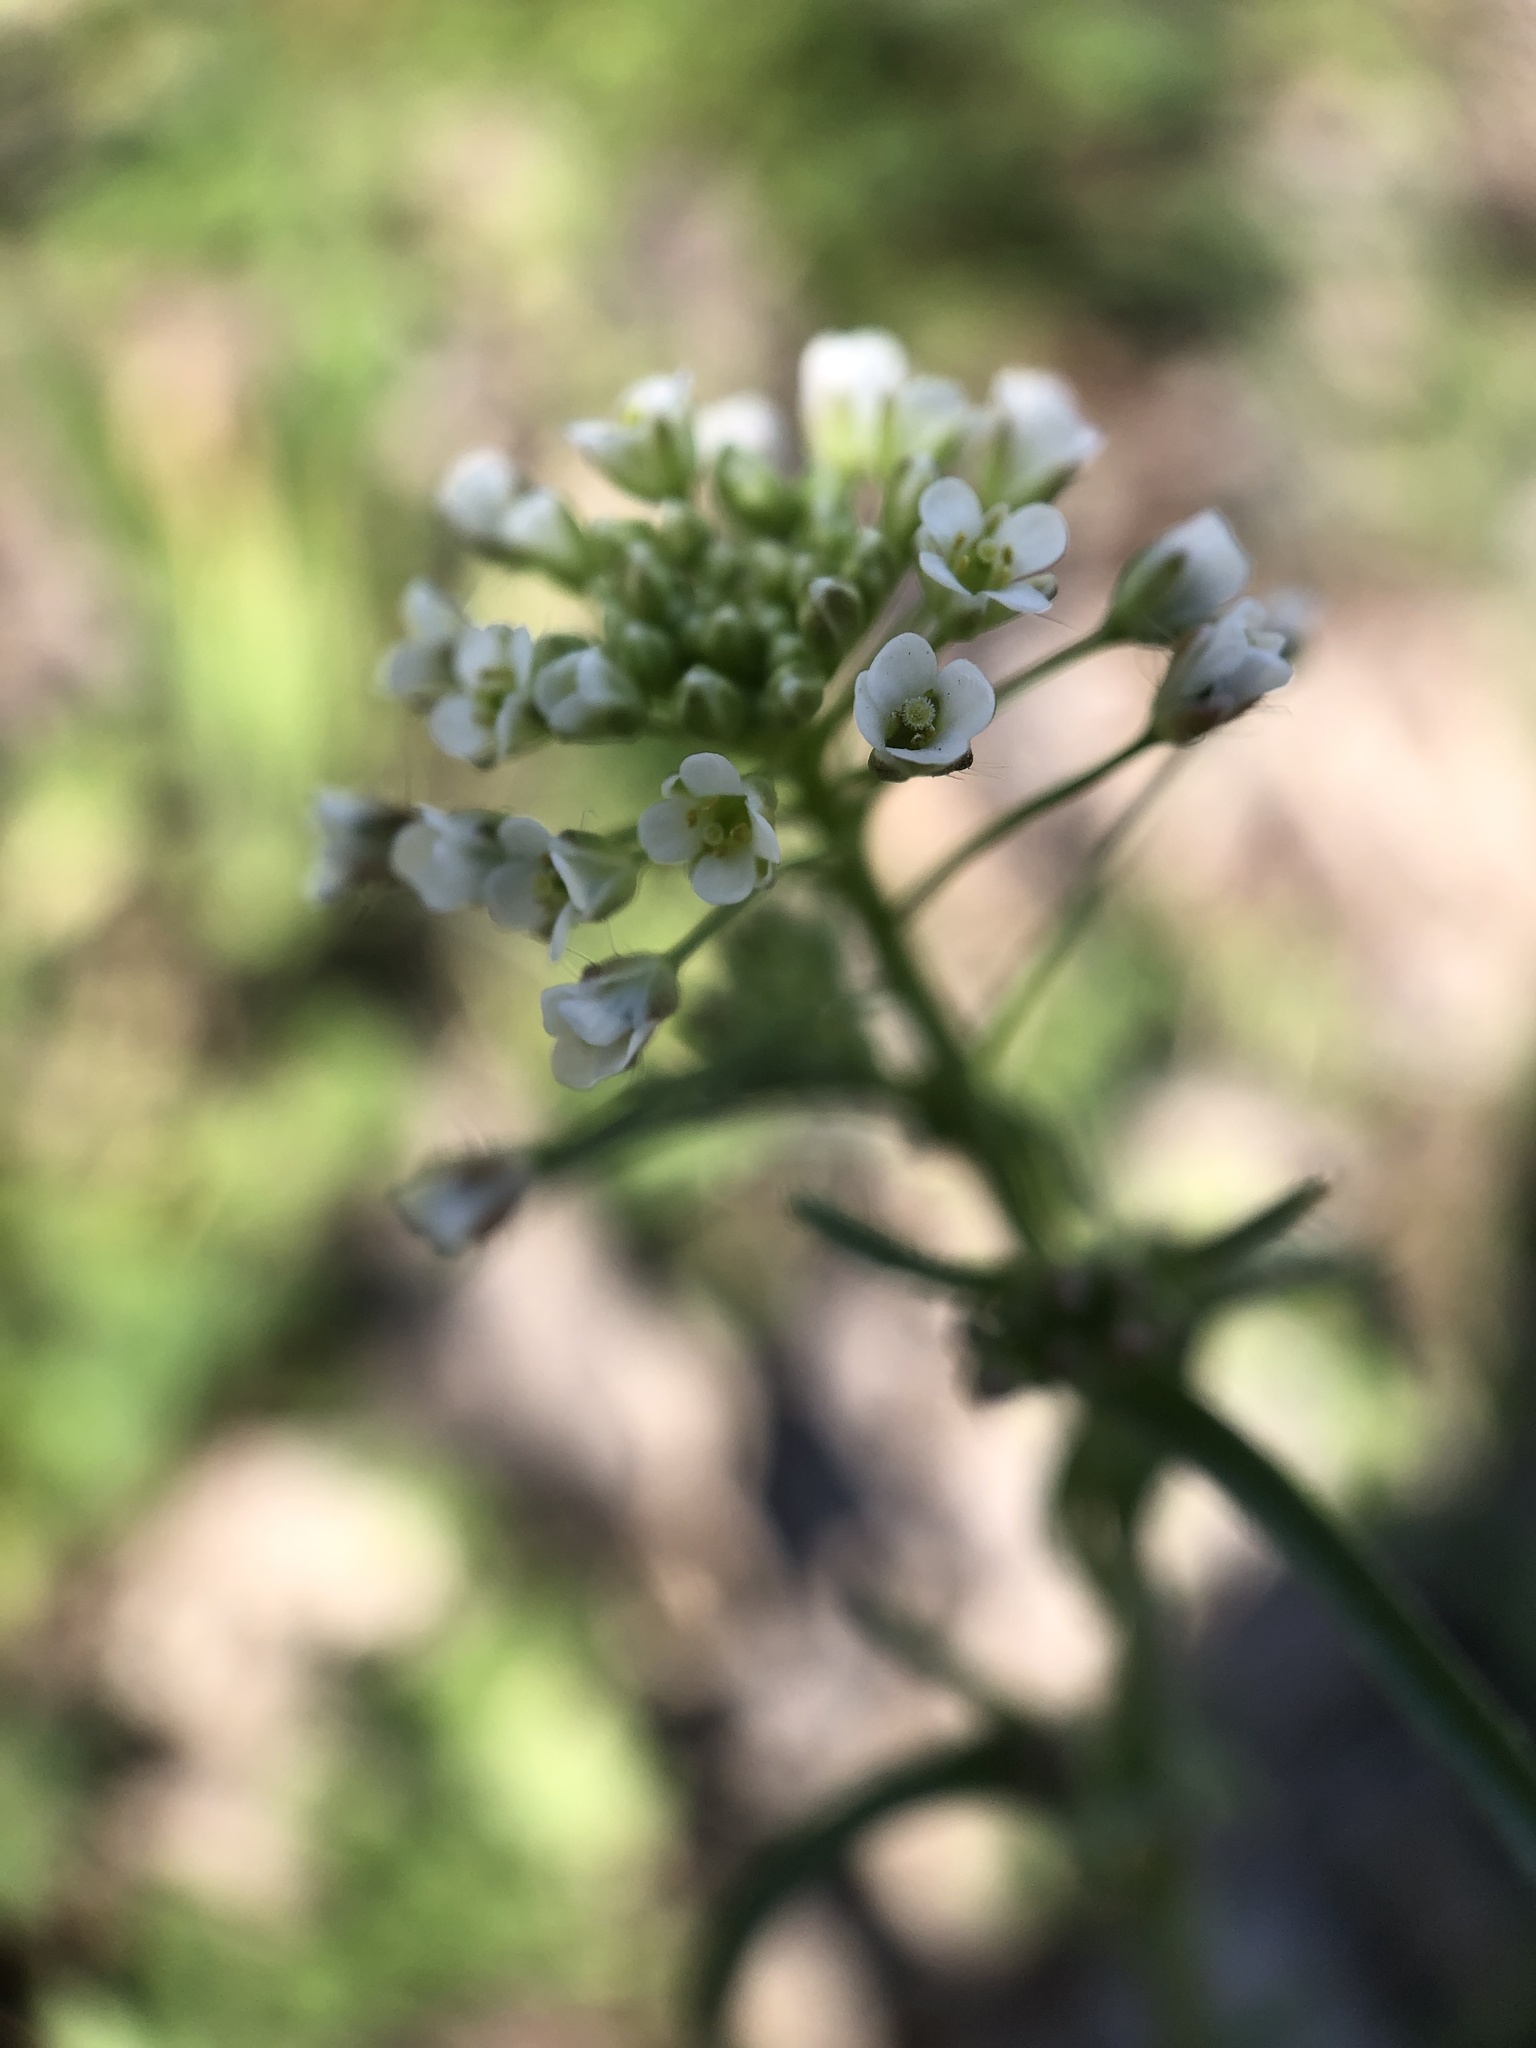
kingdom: Plantae
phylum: Tracheophyta
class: Magnoliopsida
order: Brassicales
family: Brassicaceae
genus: Capsella
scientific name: Capsella bursa-pastoris
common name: Shepherd's purse
